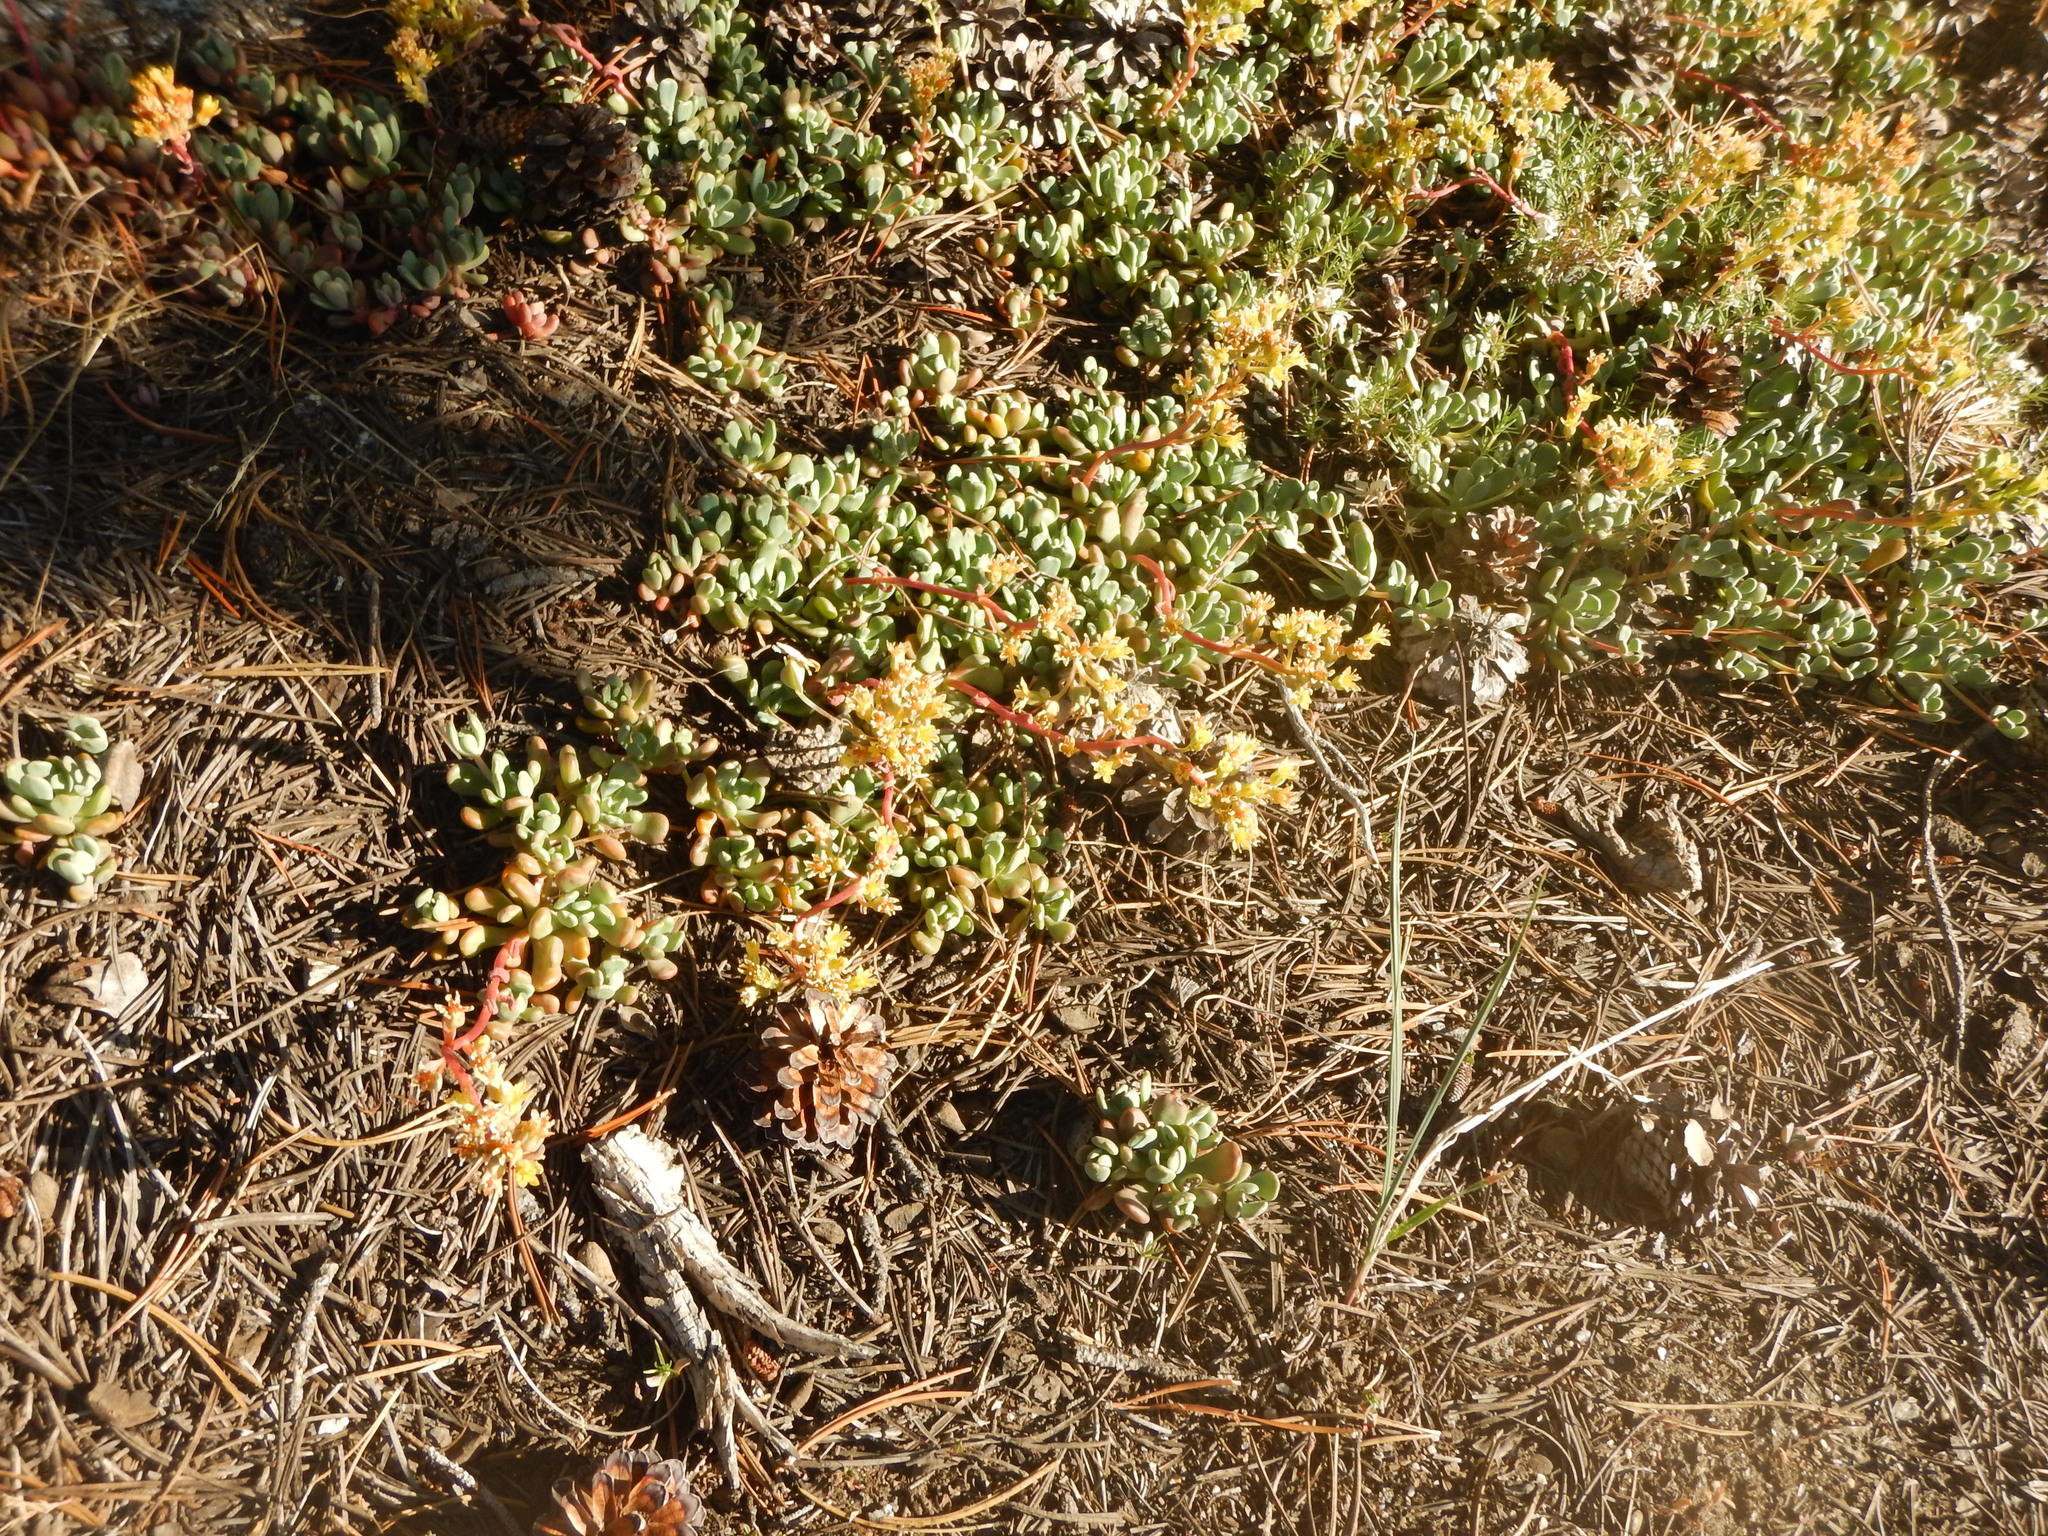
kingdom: Plantae
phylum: Tracheophyta
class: Magnoliopsida
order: Saxifragales
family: Crassulaceae
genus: Sedum
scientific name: Sedum obtusatum
